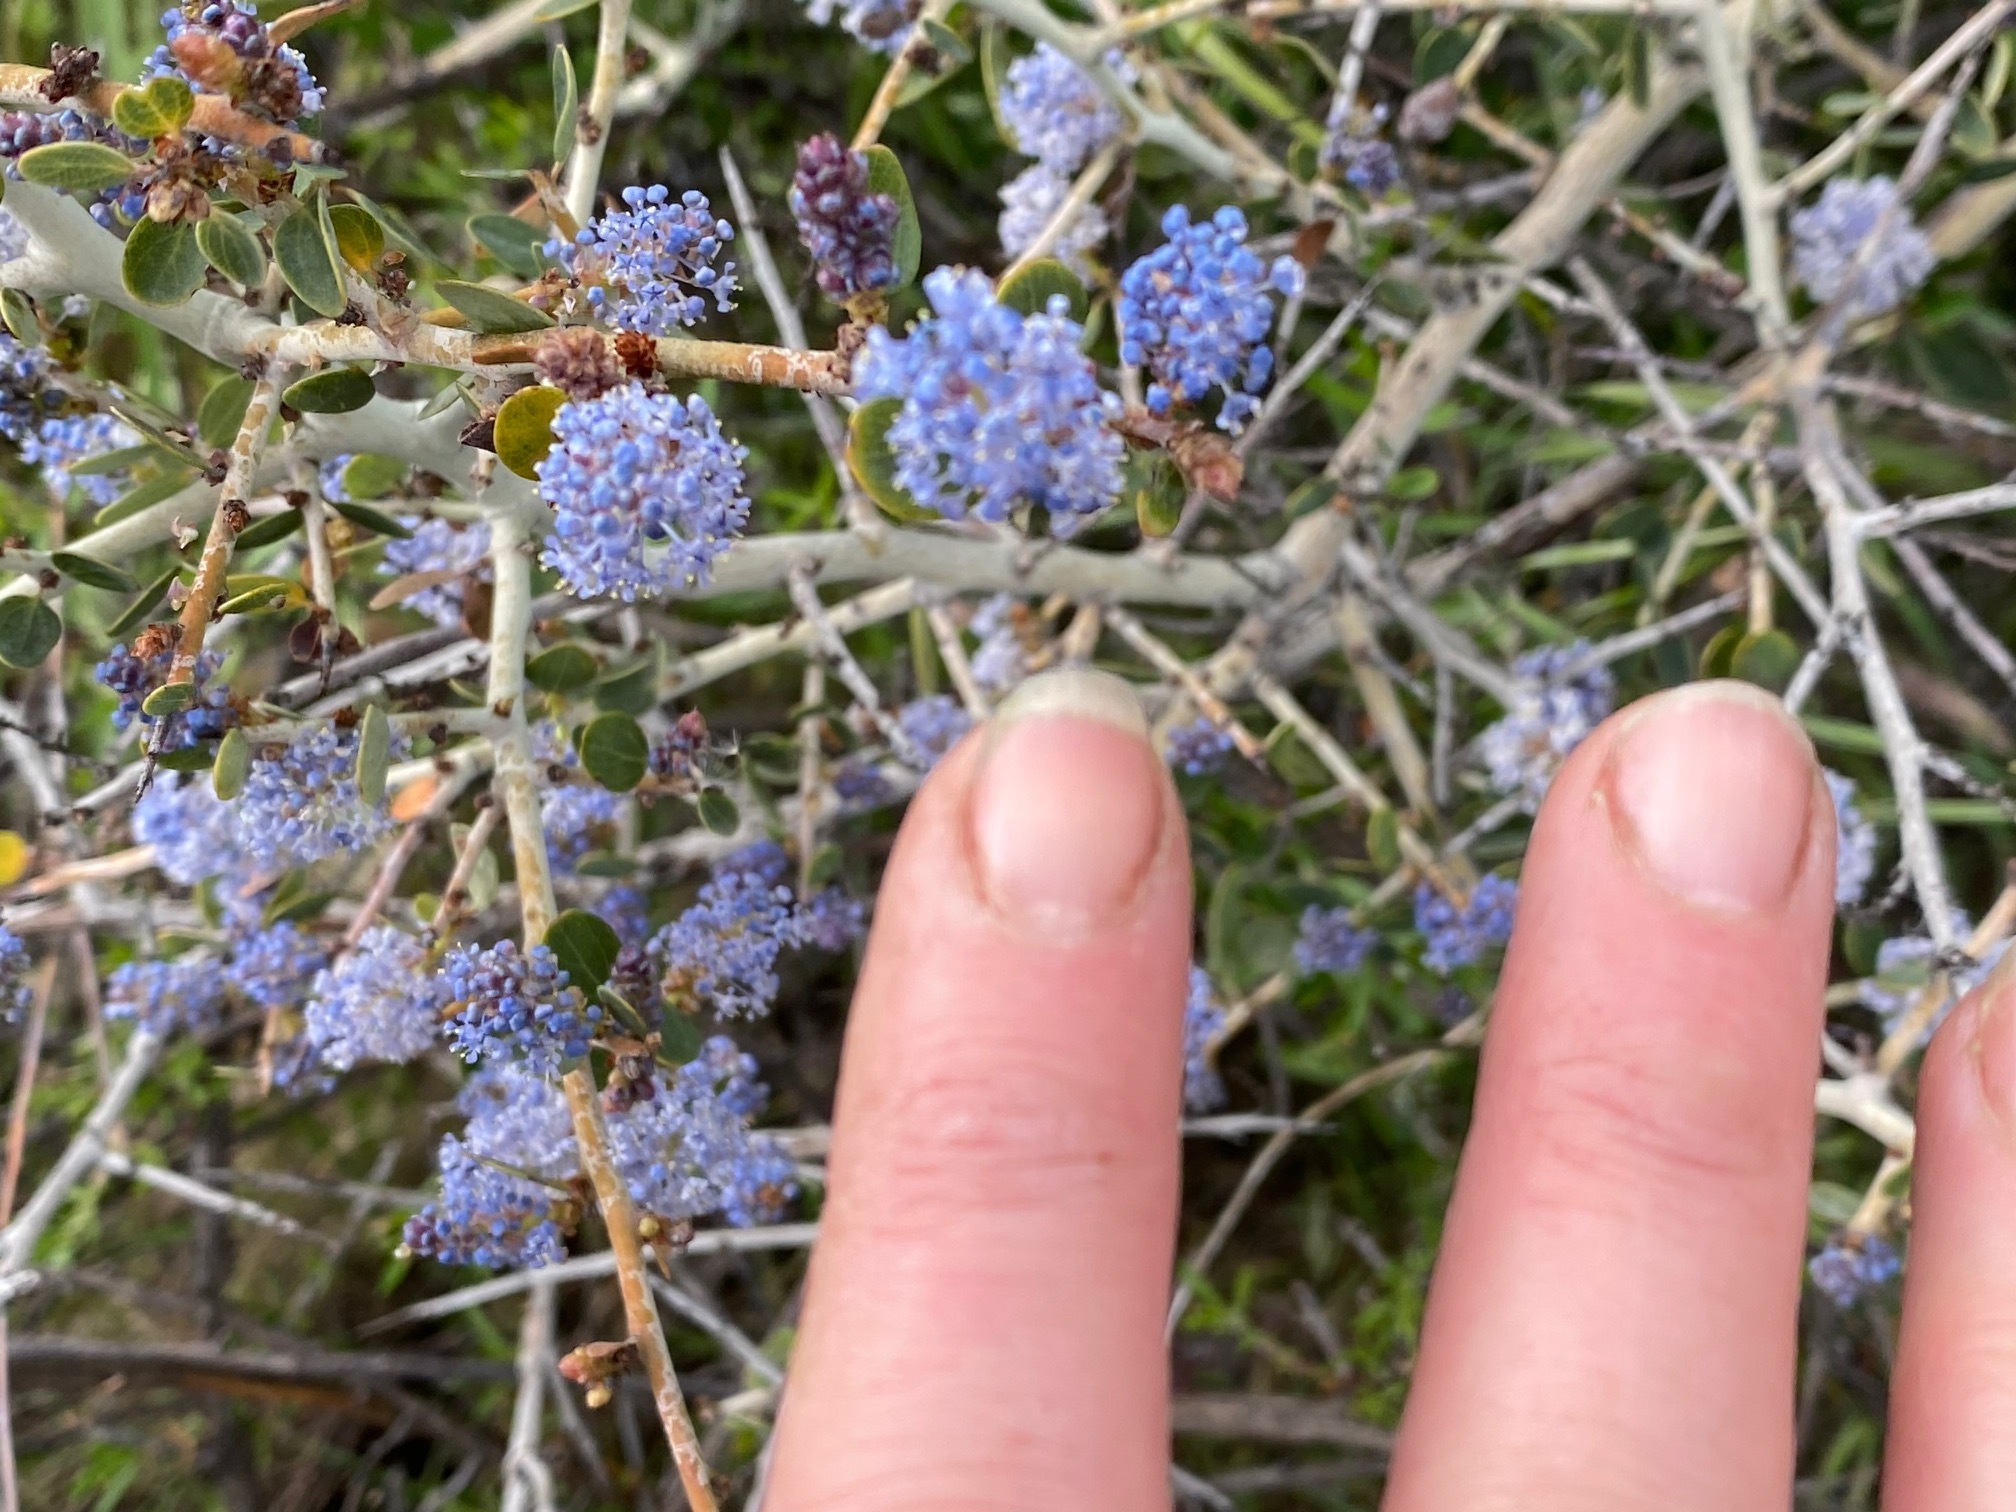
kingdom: Plantae
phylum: Tracheophyta
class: Magnoliopsida
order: Rosales
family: Rhamnaceae
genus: Ceanothus
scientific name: Ceanothus leucodermis
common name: Chaparral whitethorn
